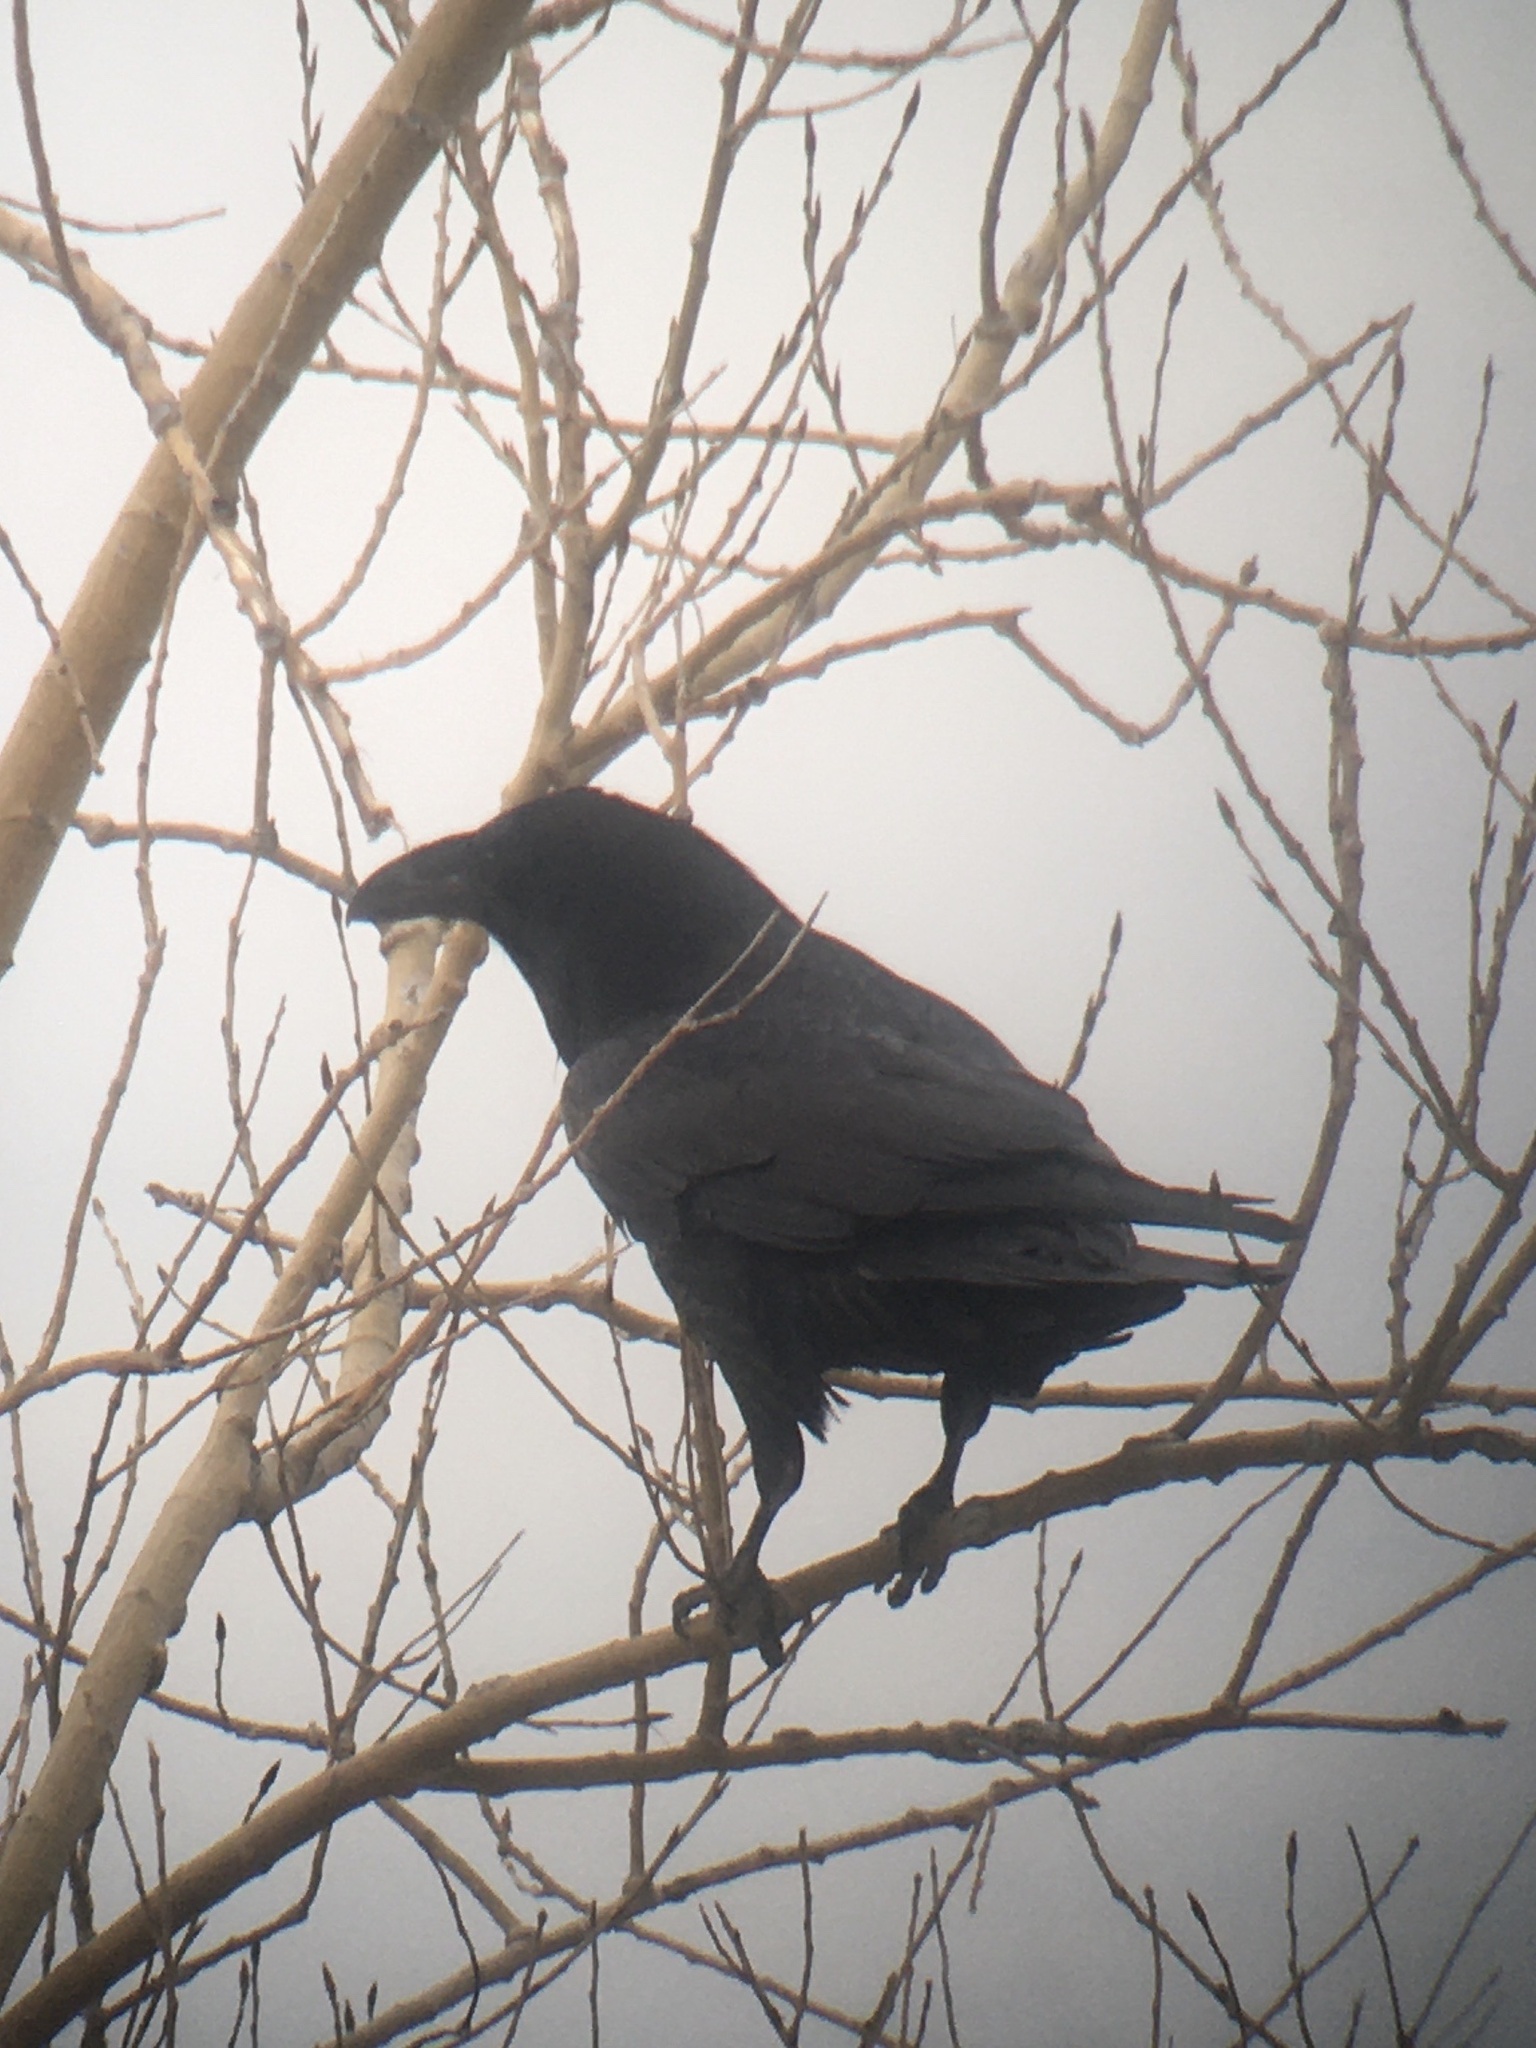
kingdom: Animalia
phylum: Chordata
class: Aves
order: Passeriformes
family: Corvidae
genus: Corvus
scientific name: Corvus corax
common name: Common raven
